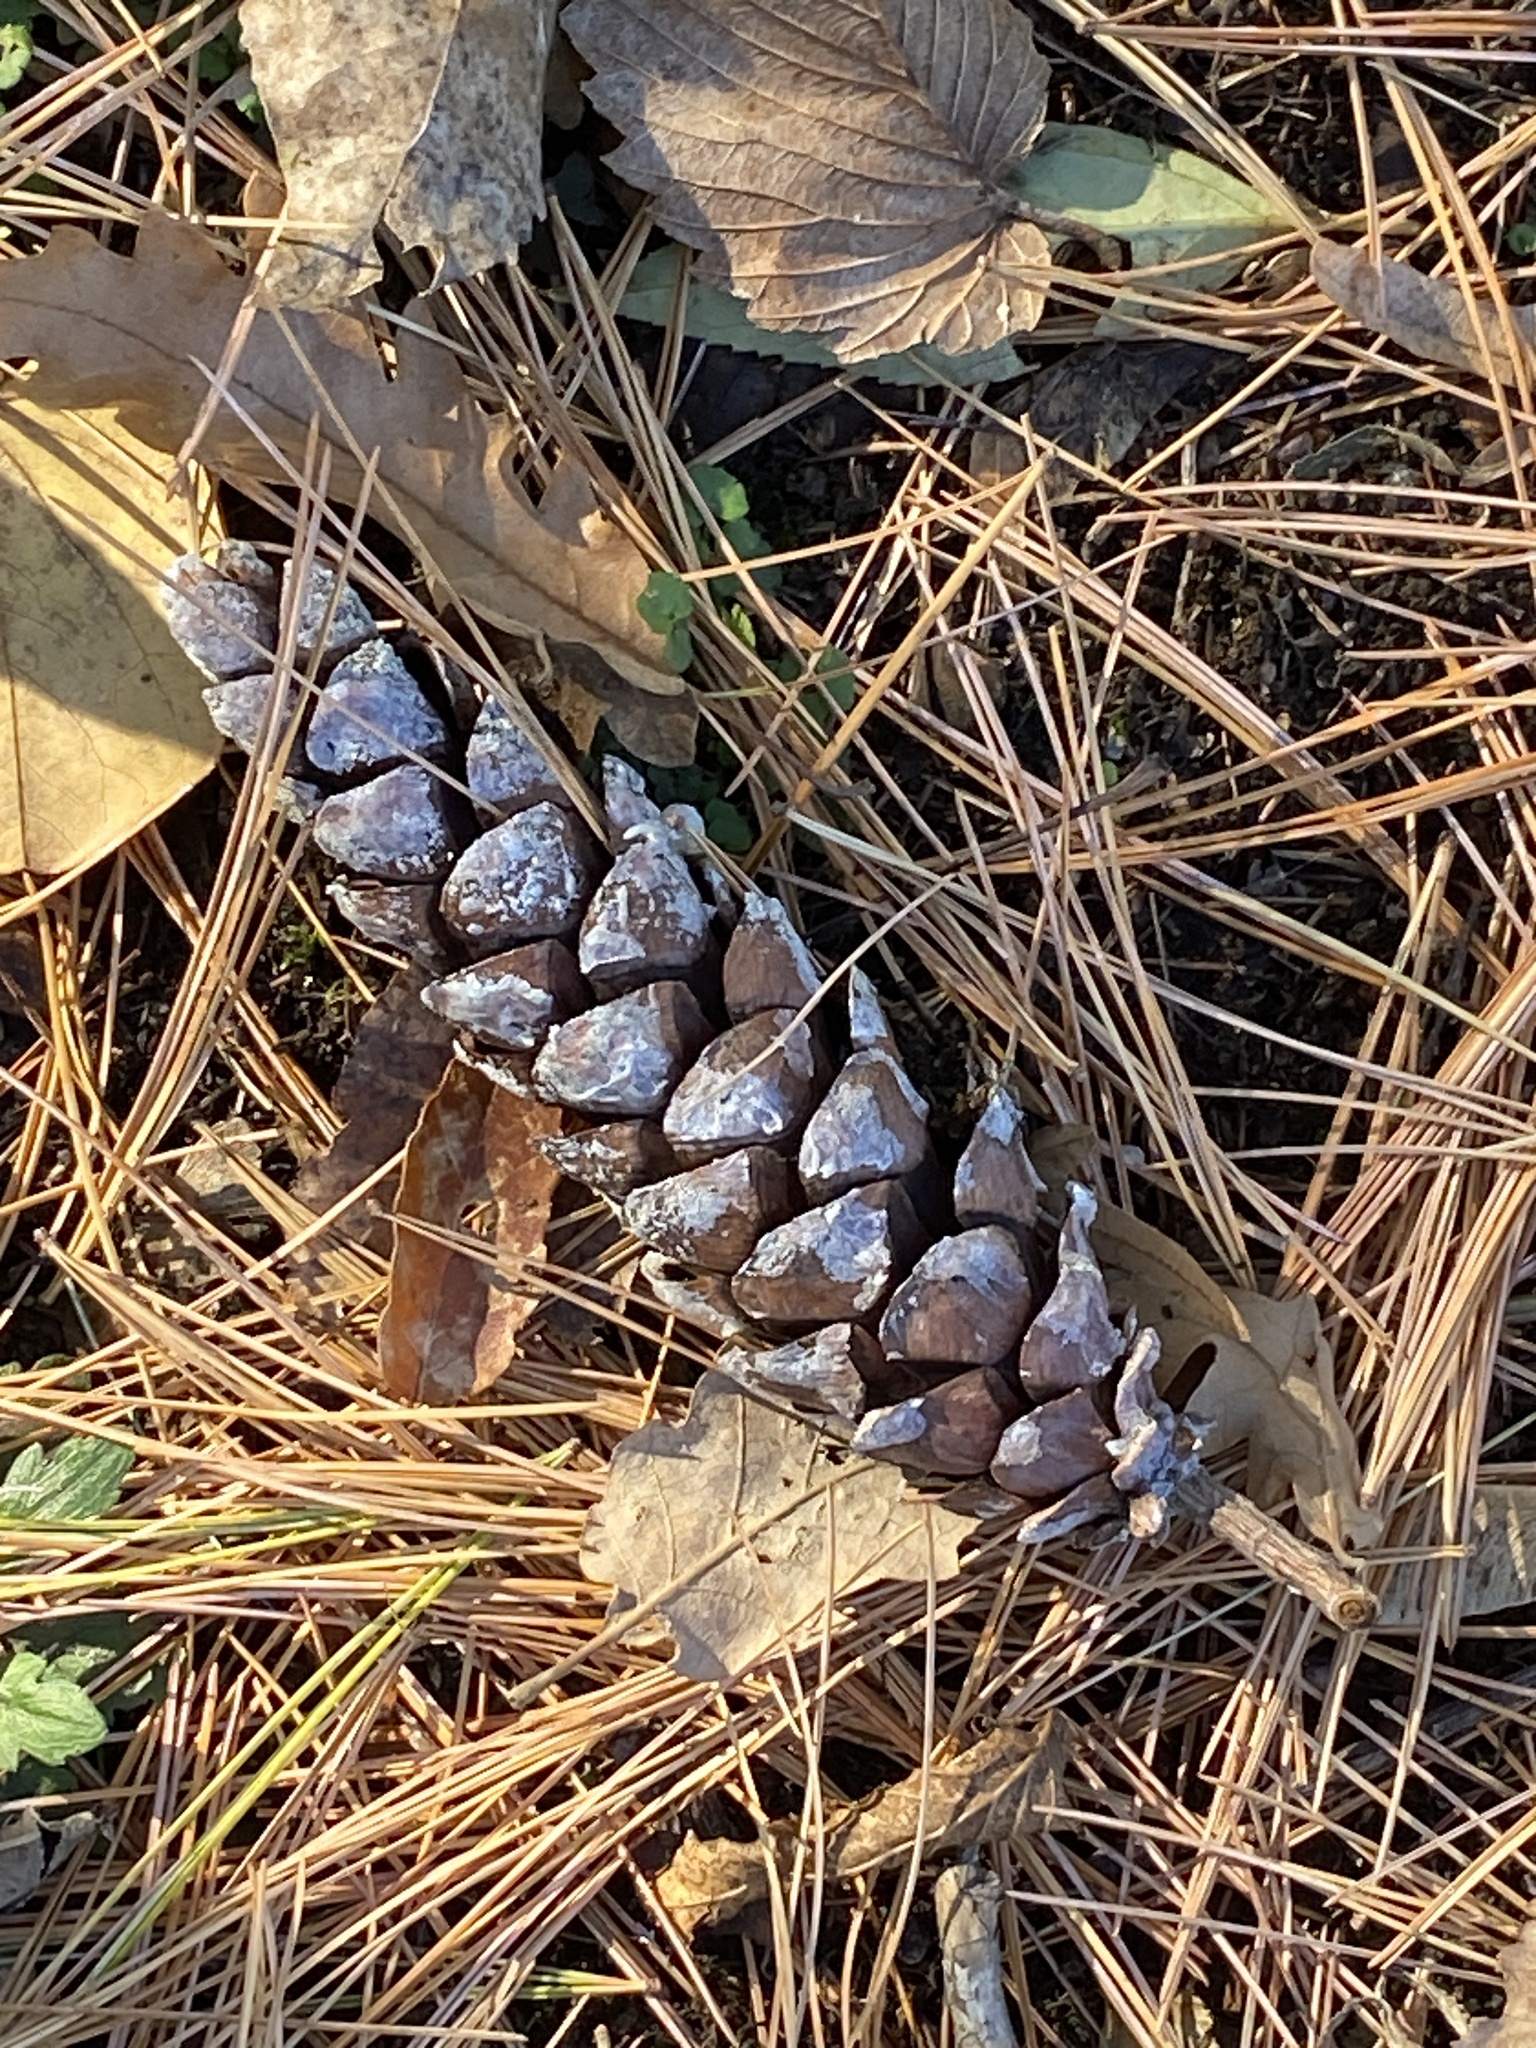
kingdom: Plantae
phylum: Tracheophyta
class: Pinopsida
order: Pinales
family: Pinaceae
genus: Pinus
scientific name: Pinus strobus
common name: Weymouth pine
